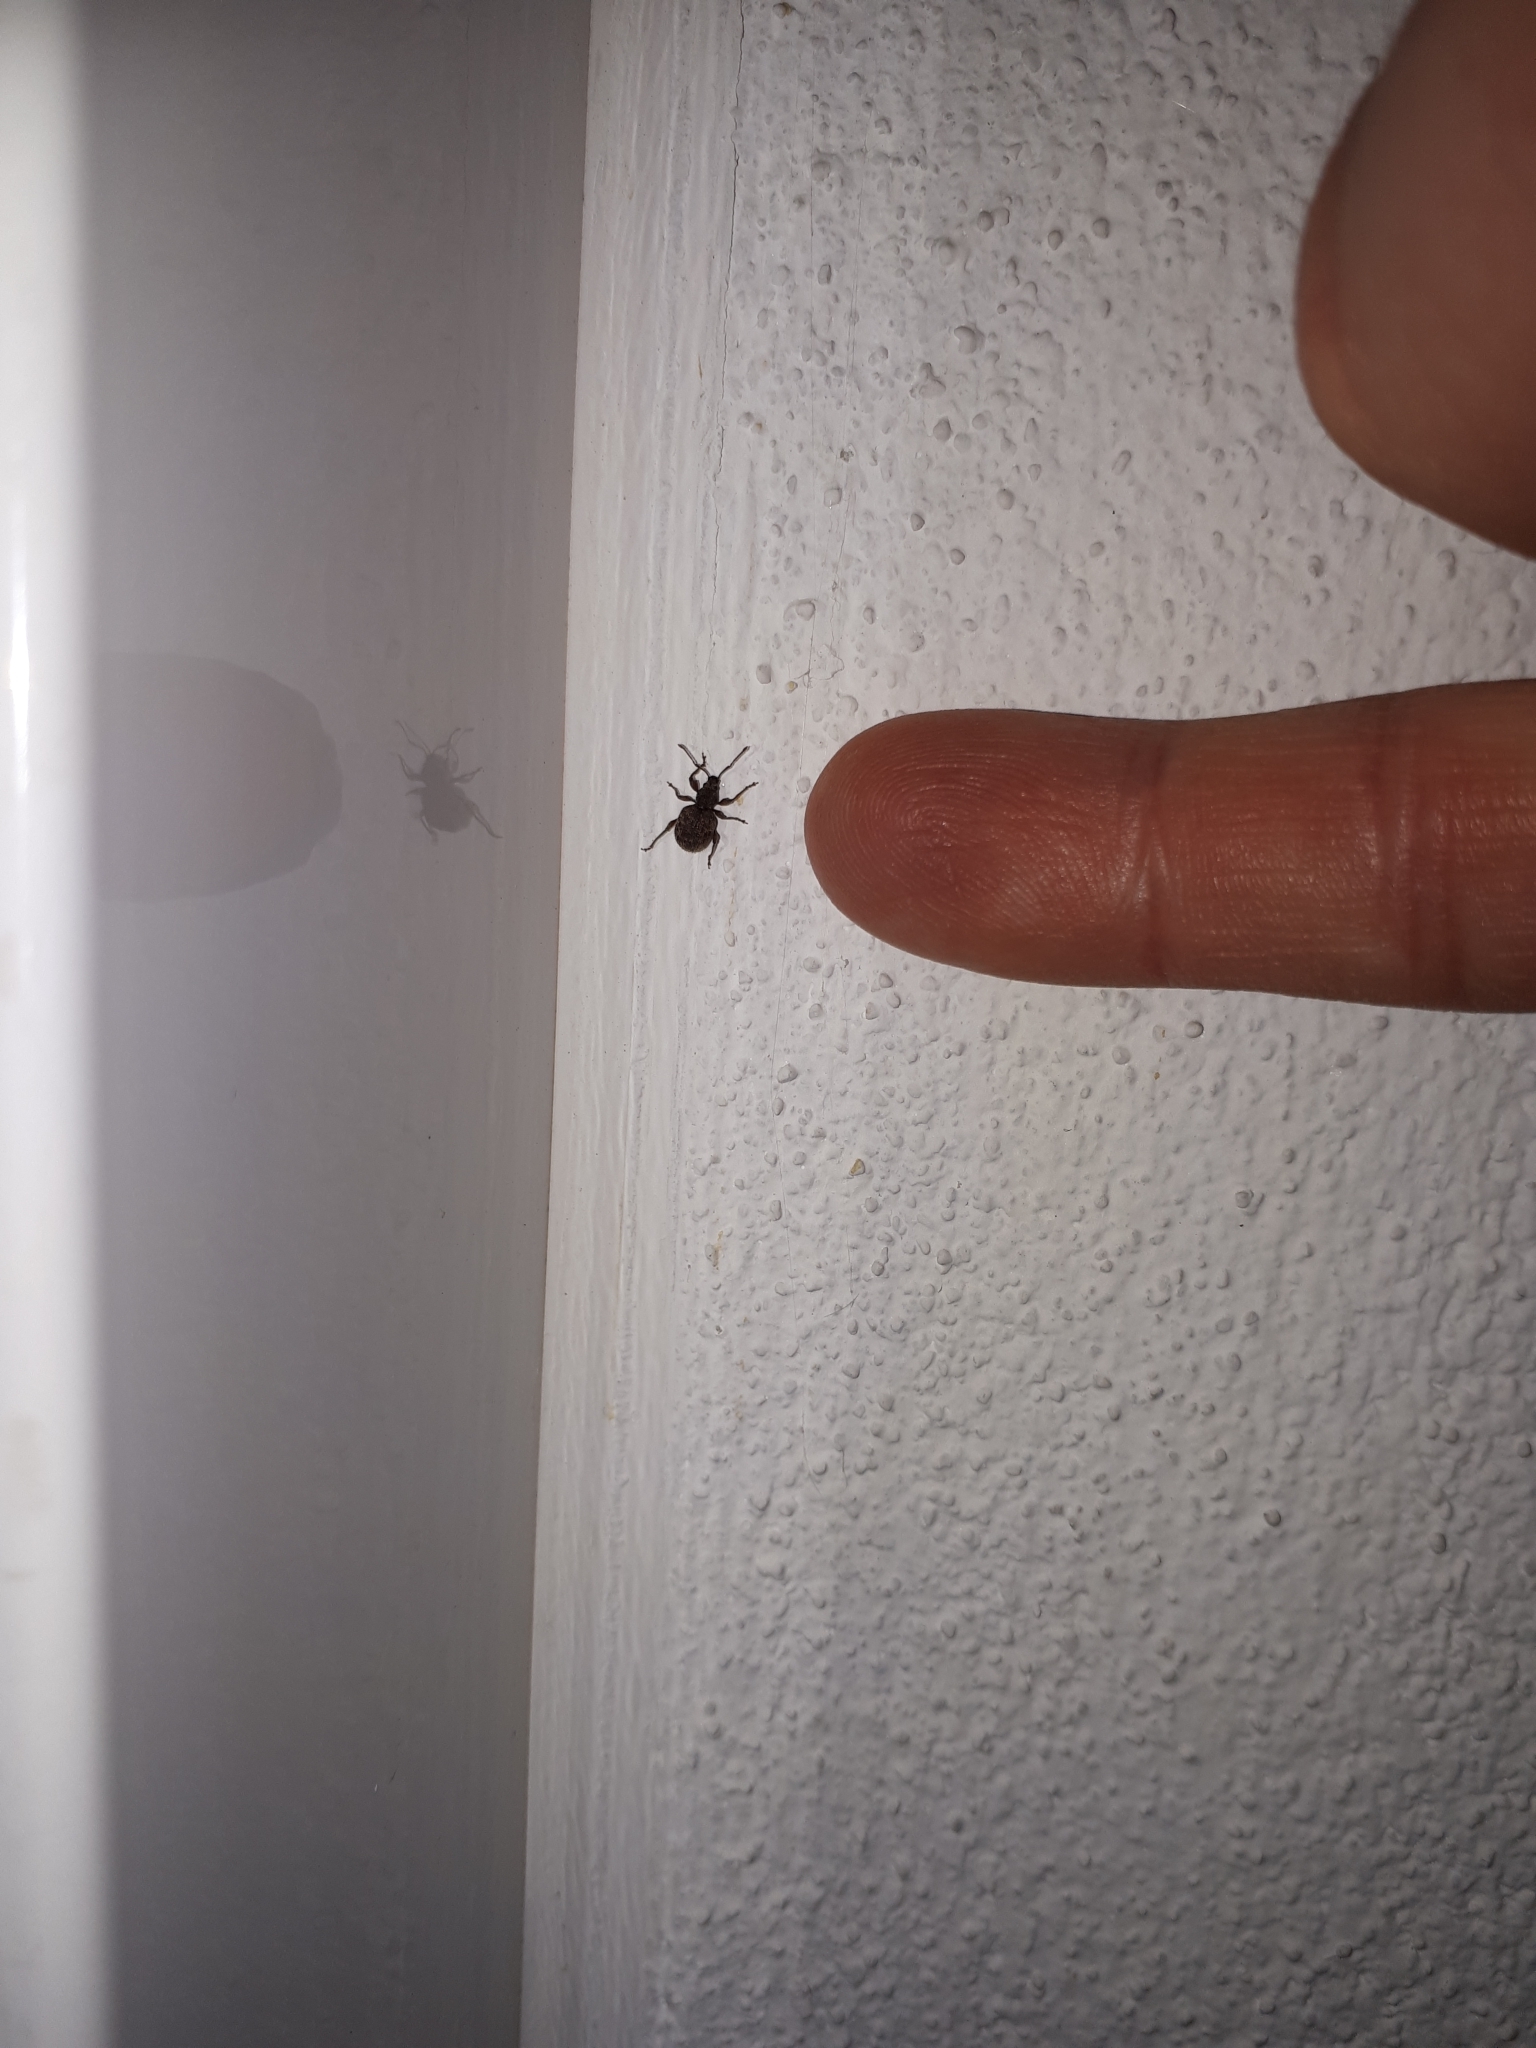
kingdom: Animalia
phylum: Arthropoda
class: Insecta
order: Coleoptera
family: Curculionidae
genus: Otiorhynchus
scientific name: Otiorhynchus crataegi
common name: Privet weevil
